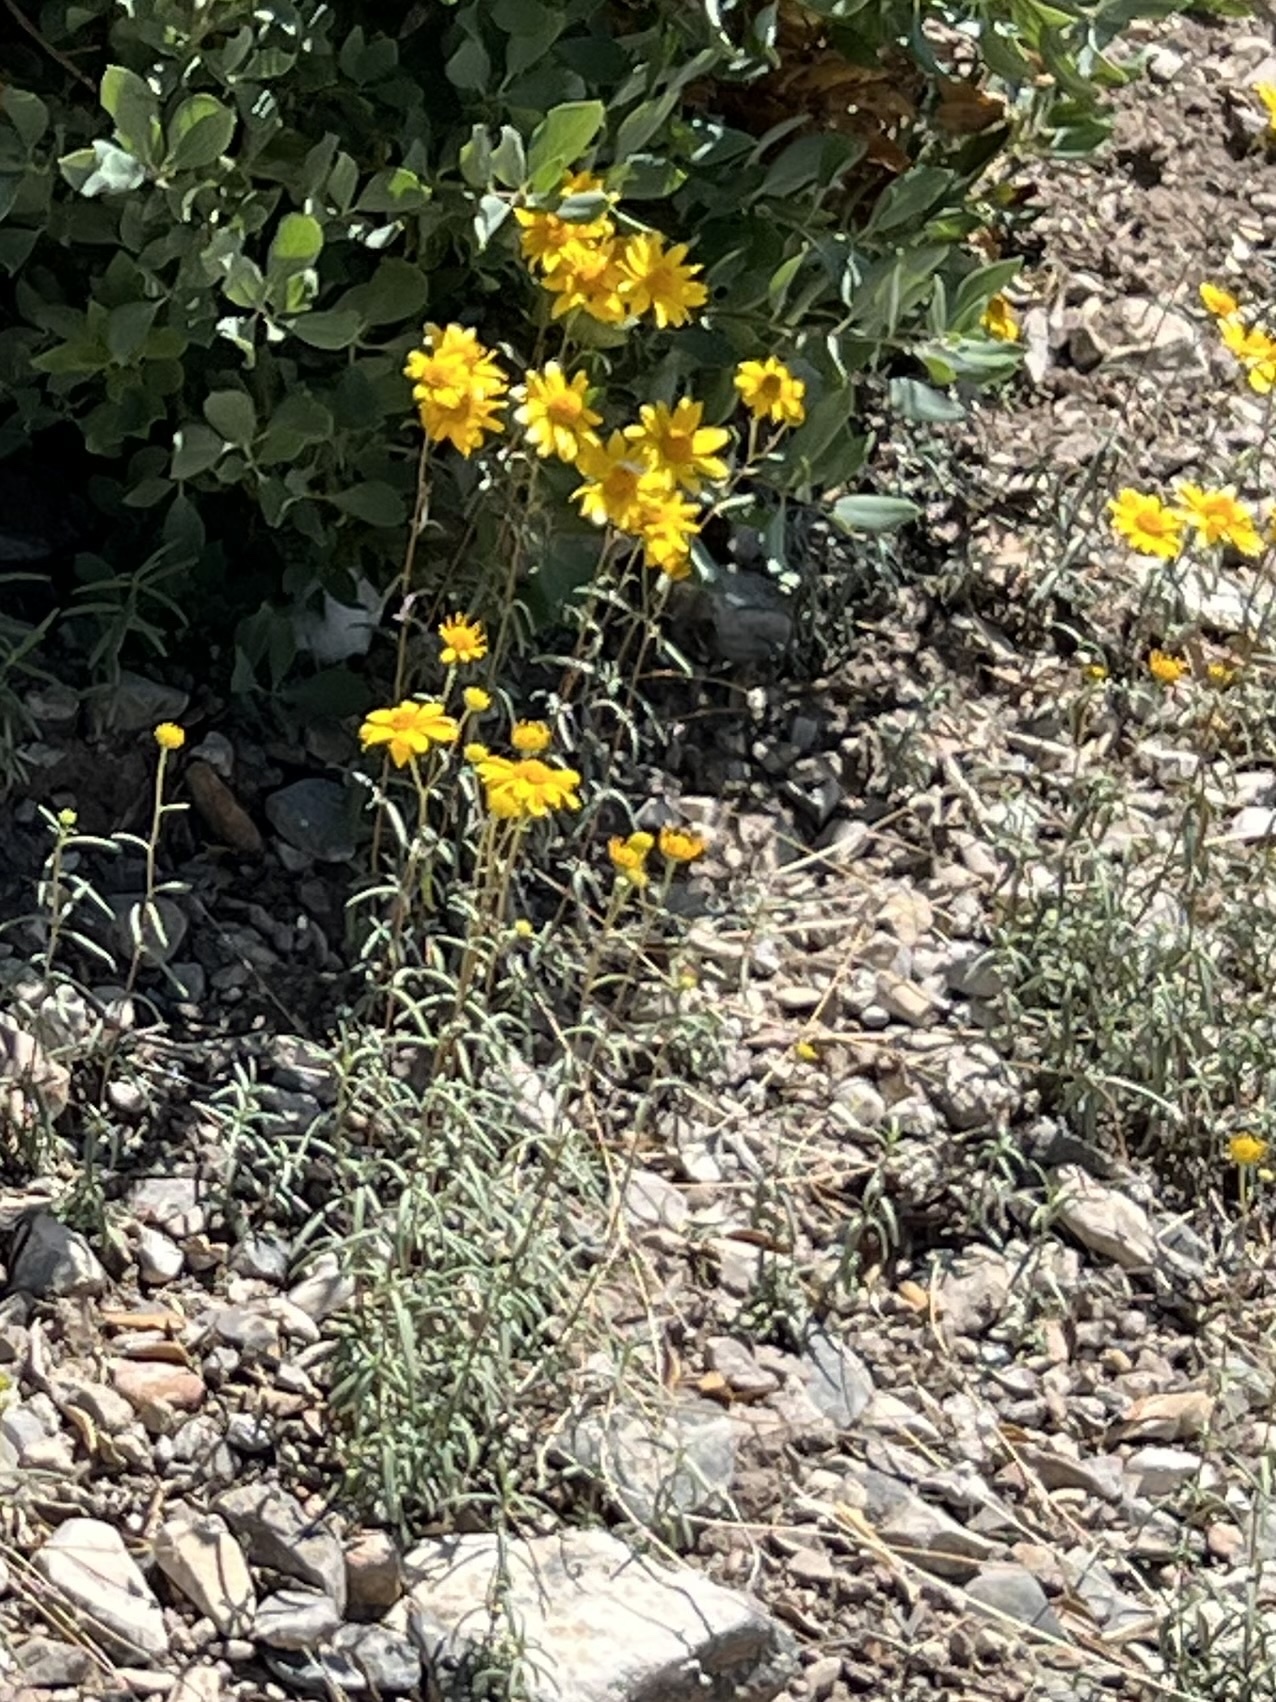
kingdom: Plantae
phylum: Tracheophyta
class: Magnoliopsida
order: Asterales
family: Asteraceae
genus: Heliomeris
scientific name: Heliomeris multiflora
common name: Showy goldeneye
